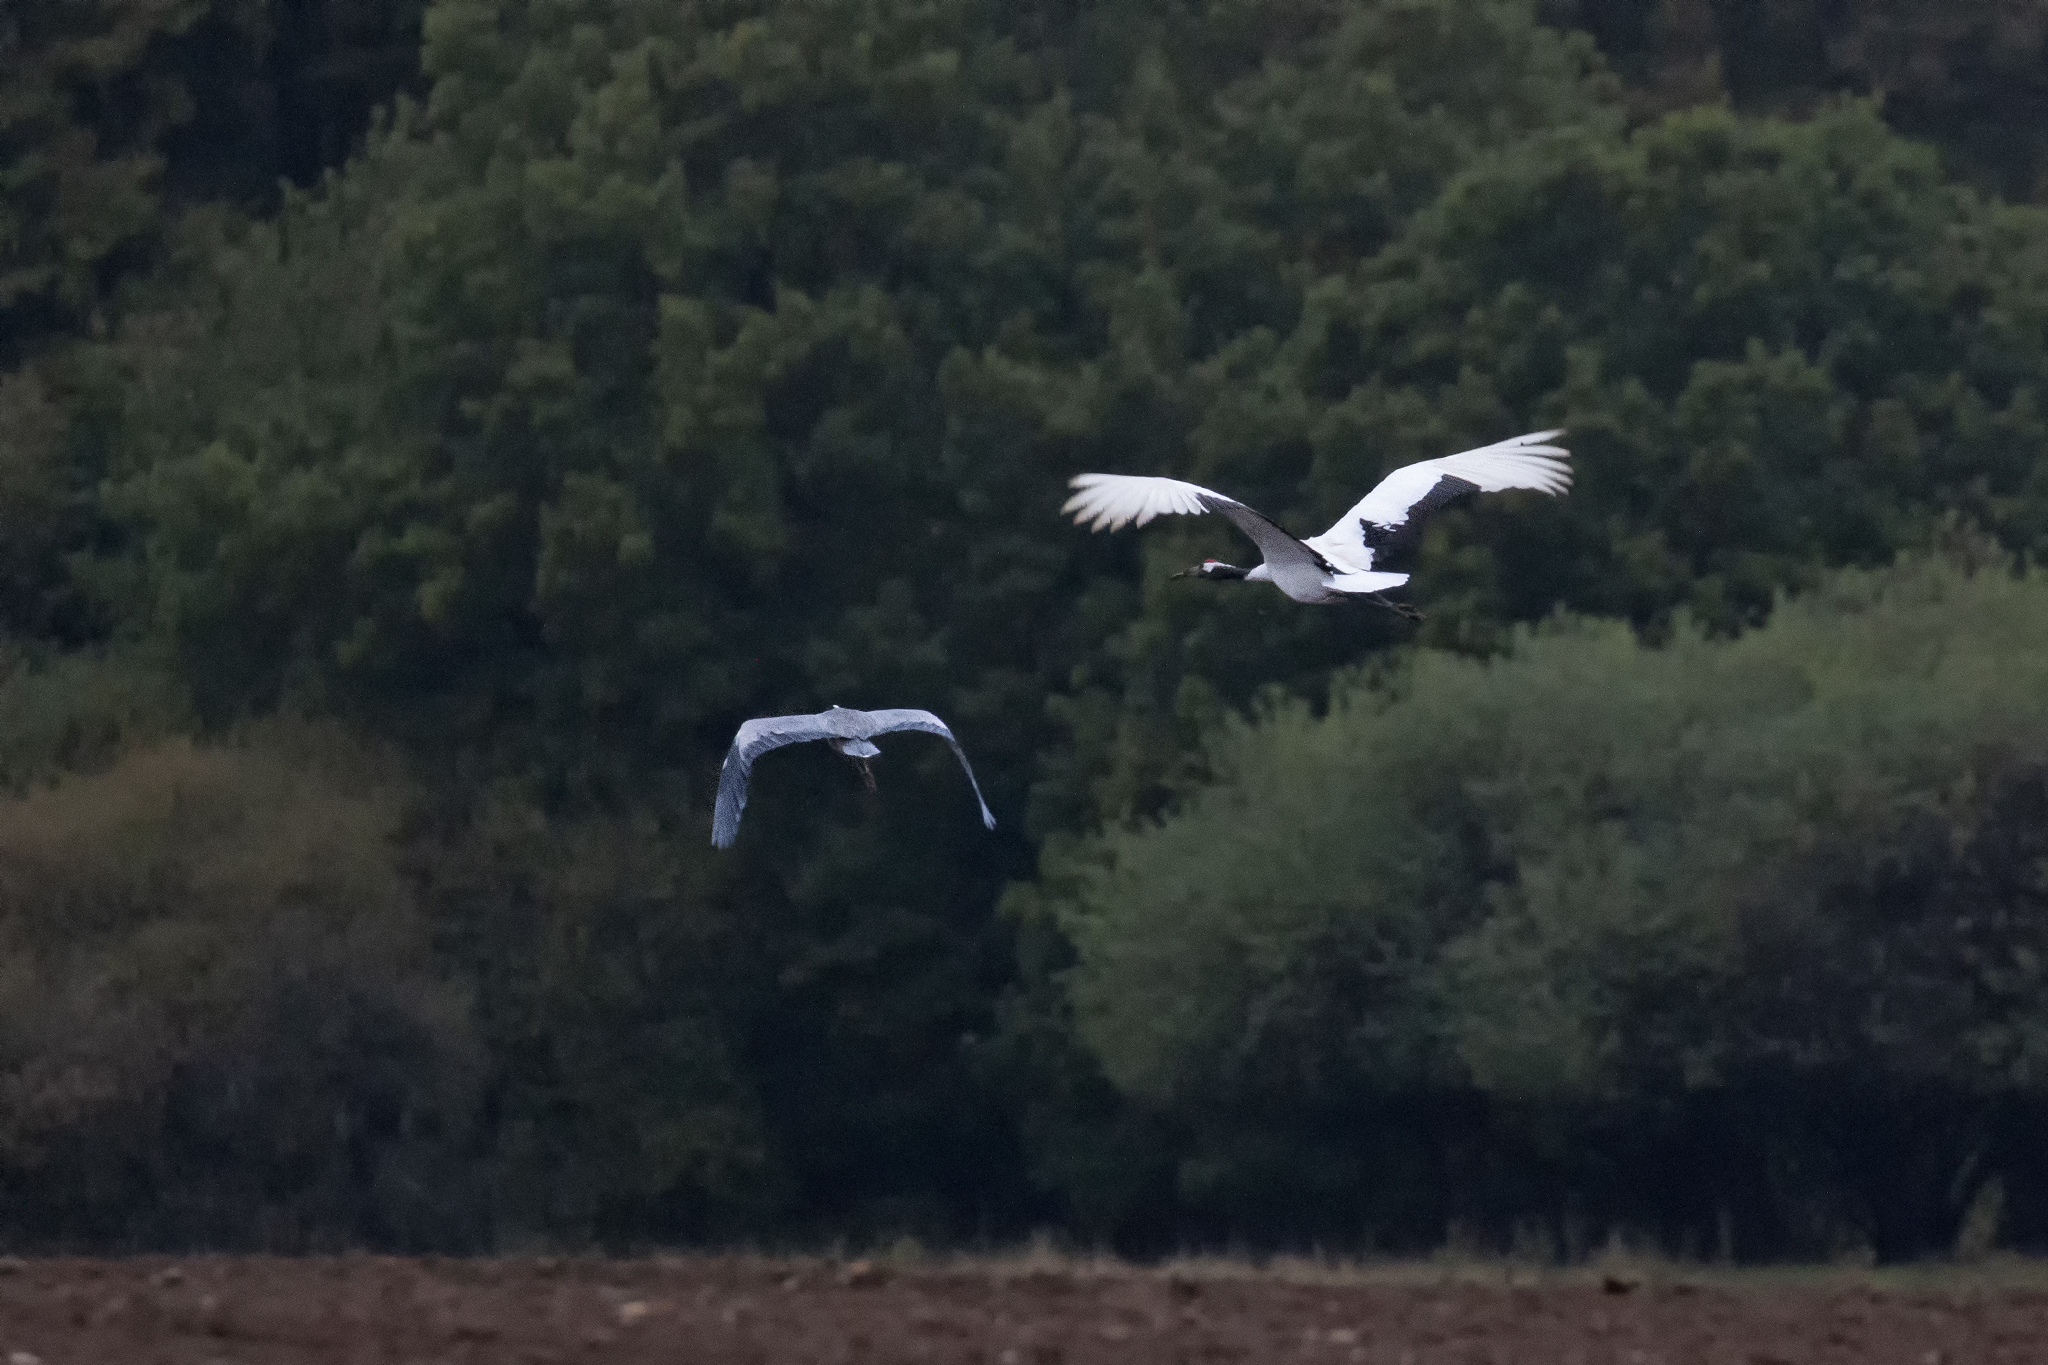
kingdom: Animalia
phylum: Chordata
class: Aves
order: Gruiformes
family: Gruidae
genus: Grus
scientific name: Grus japonensis
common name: Red-crowned crane
